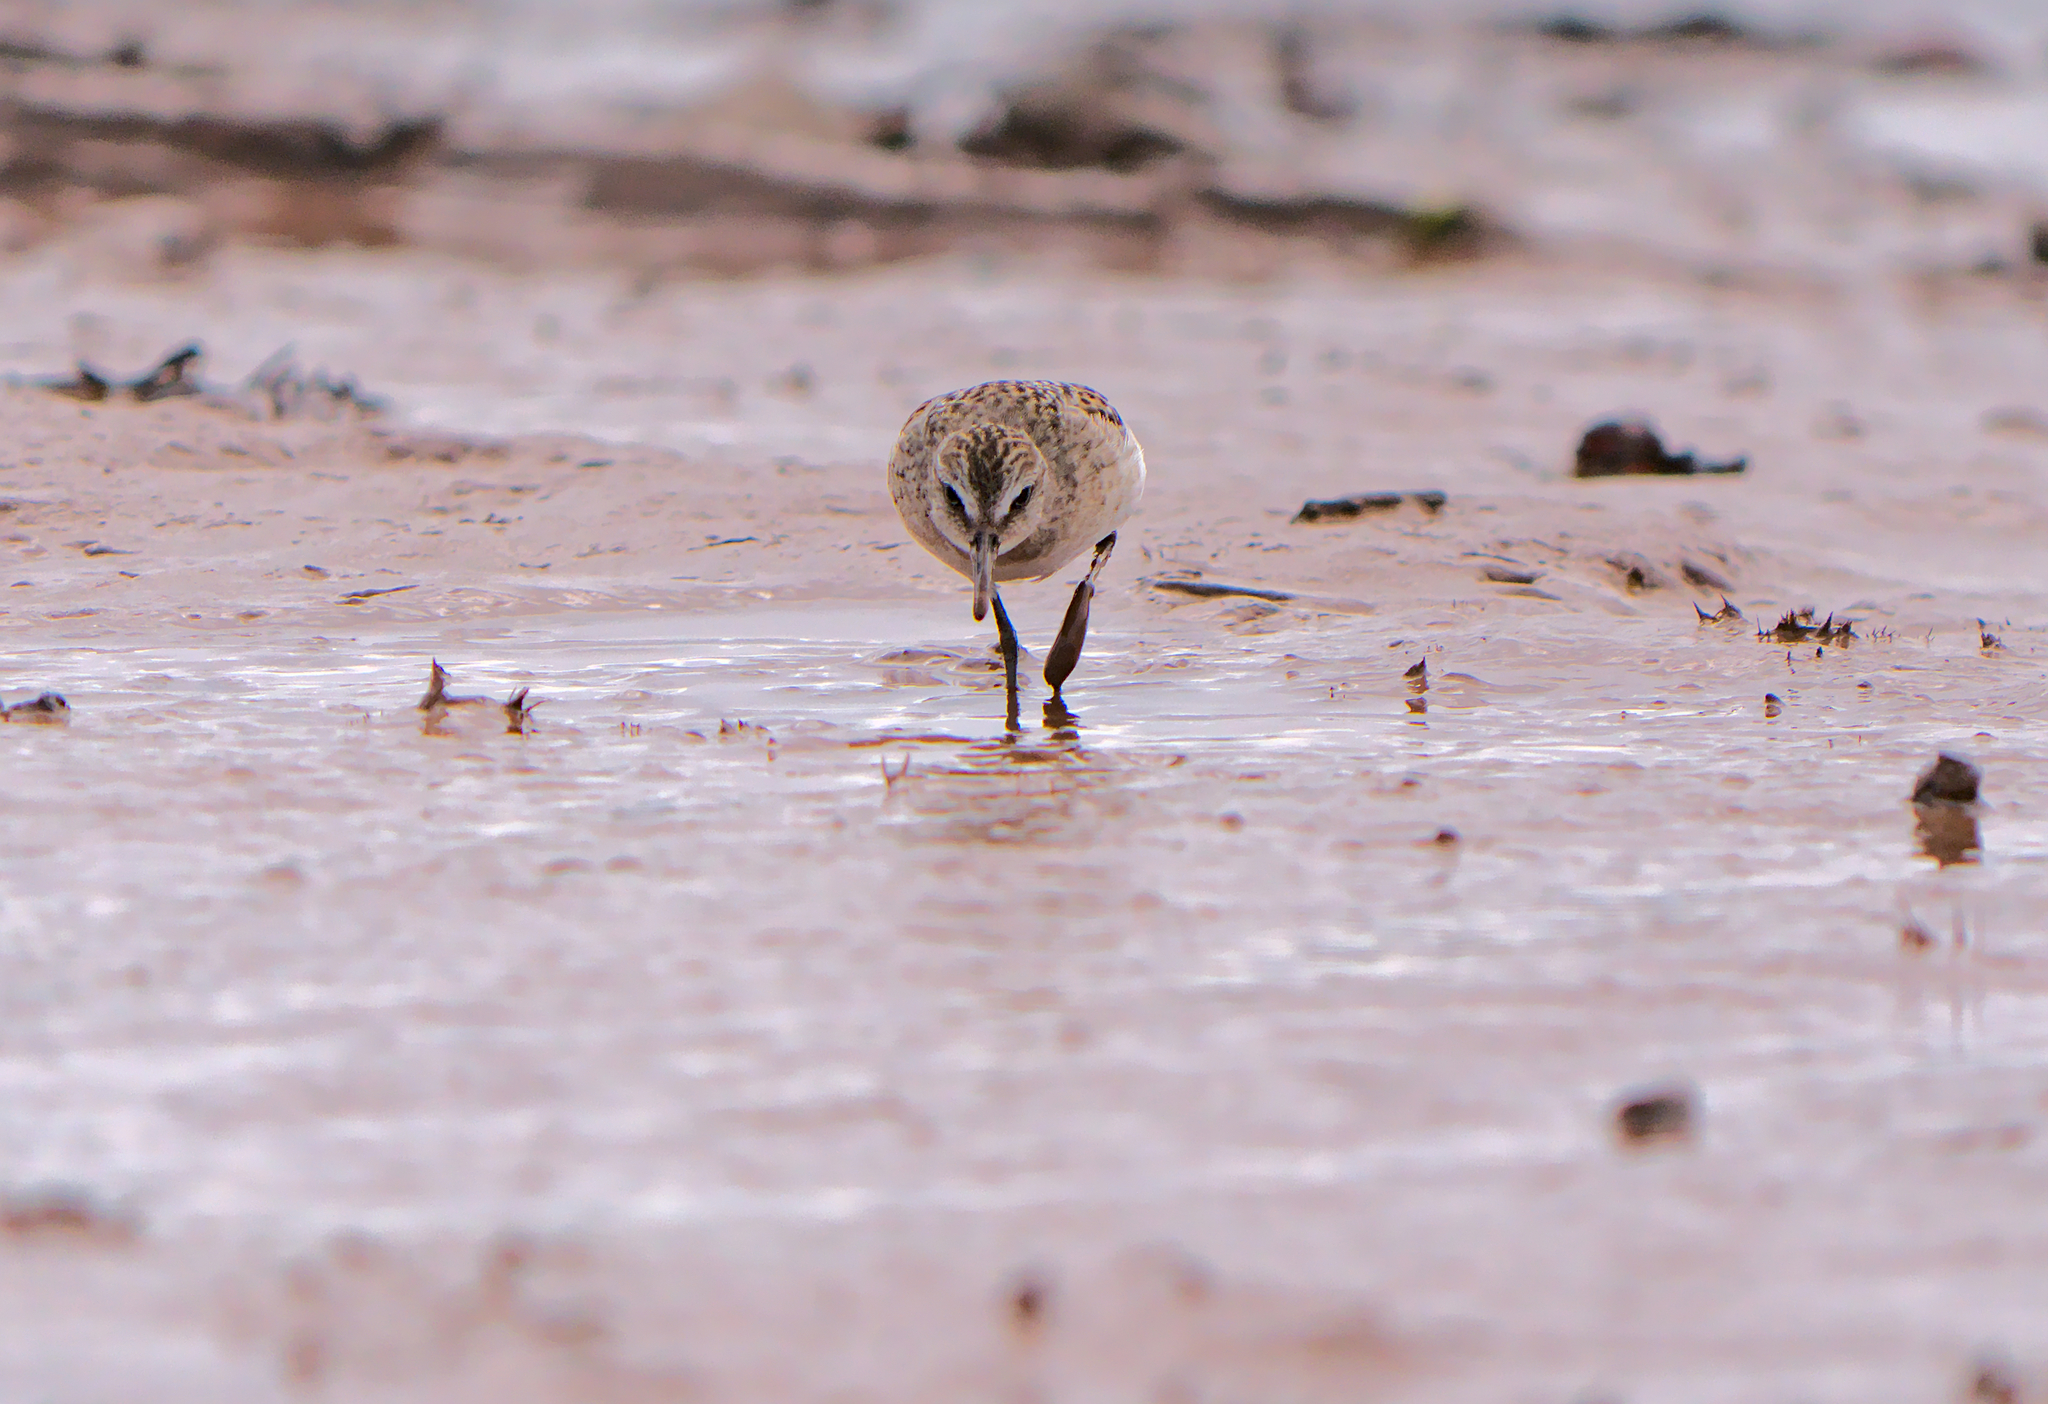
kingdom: Animalia
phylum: Chordata
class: Aves
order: Charadriiformes
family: Scolopacidae
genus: Calidris
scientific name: Calidris pusilla
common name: Semipalmated sandpiper
